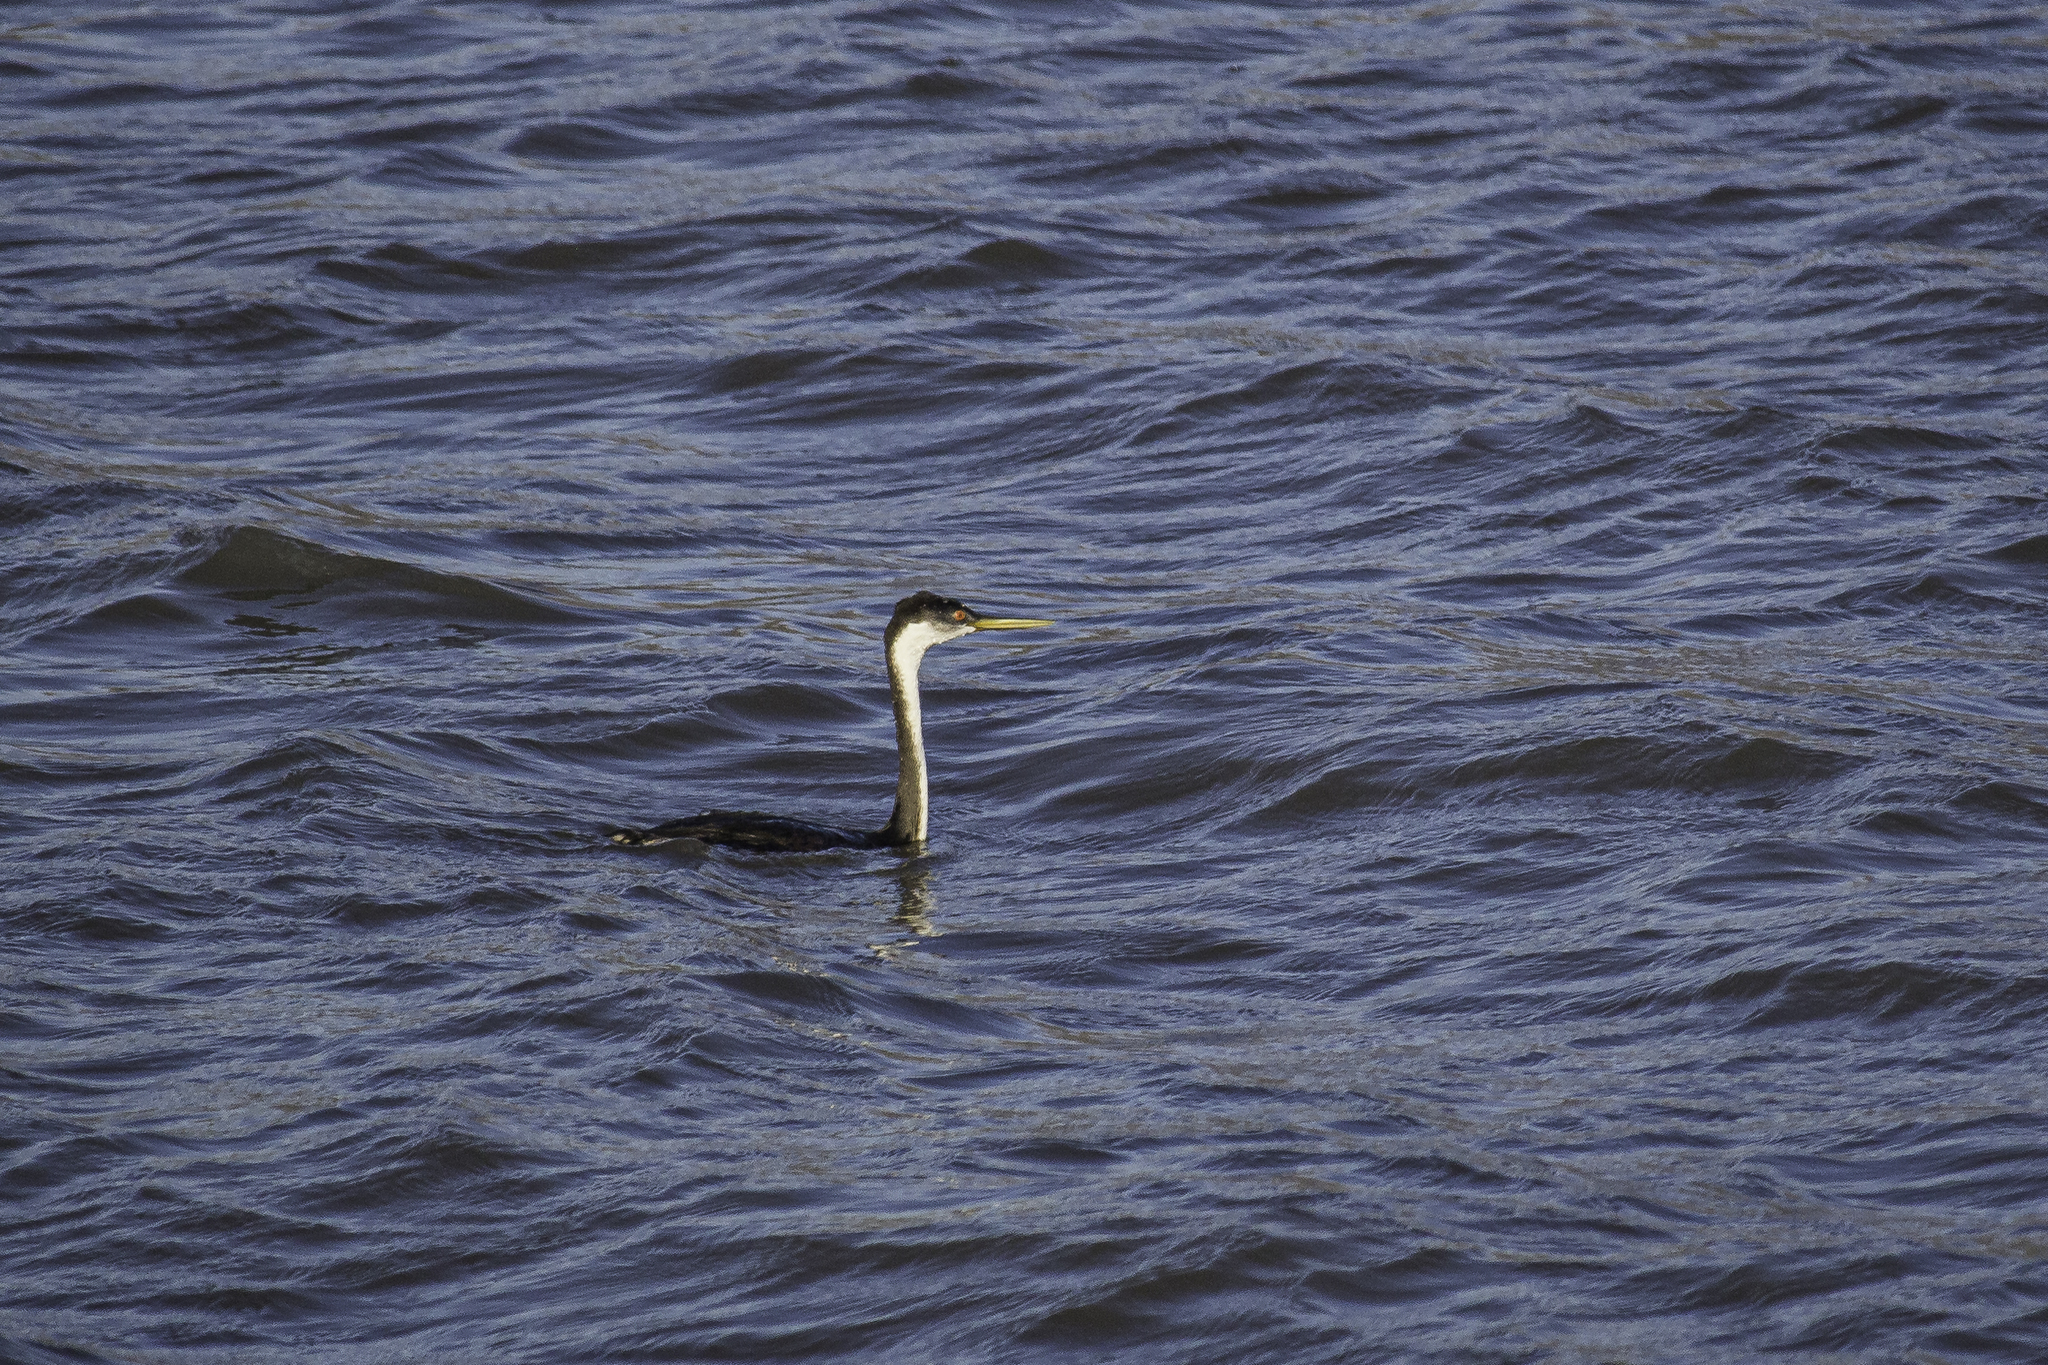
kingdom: Animalia
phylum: Chordata
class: Aves
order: Podicipediformes
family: Podicipedidae
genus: Aechmophorus
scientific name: Aechmophorus occidentalis
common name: Western grebe
